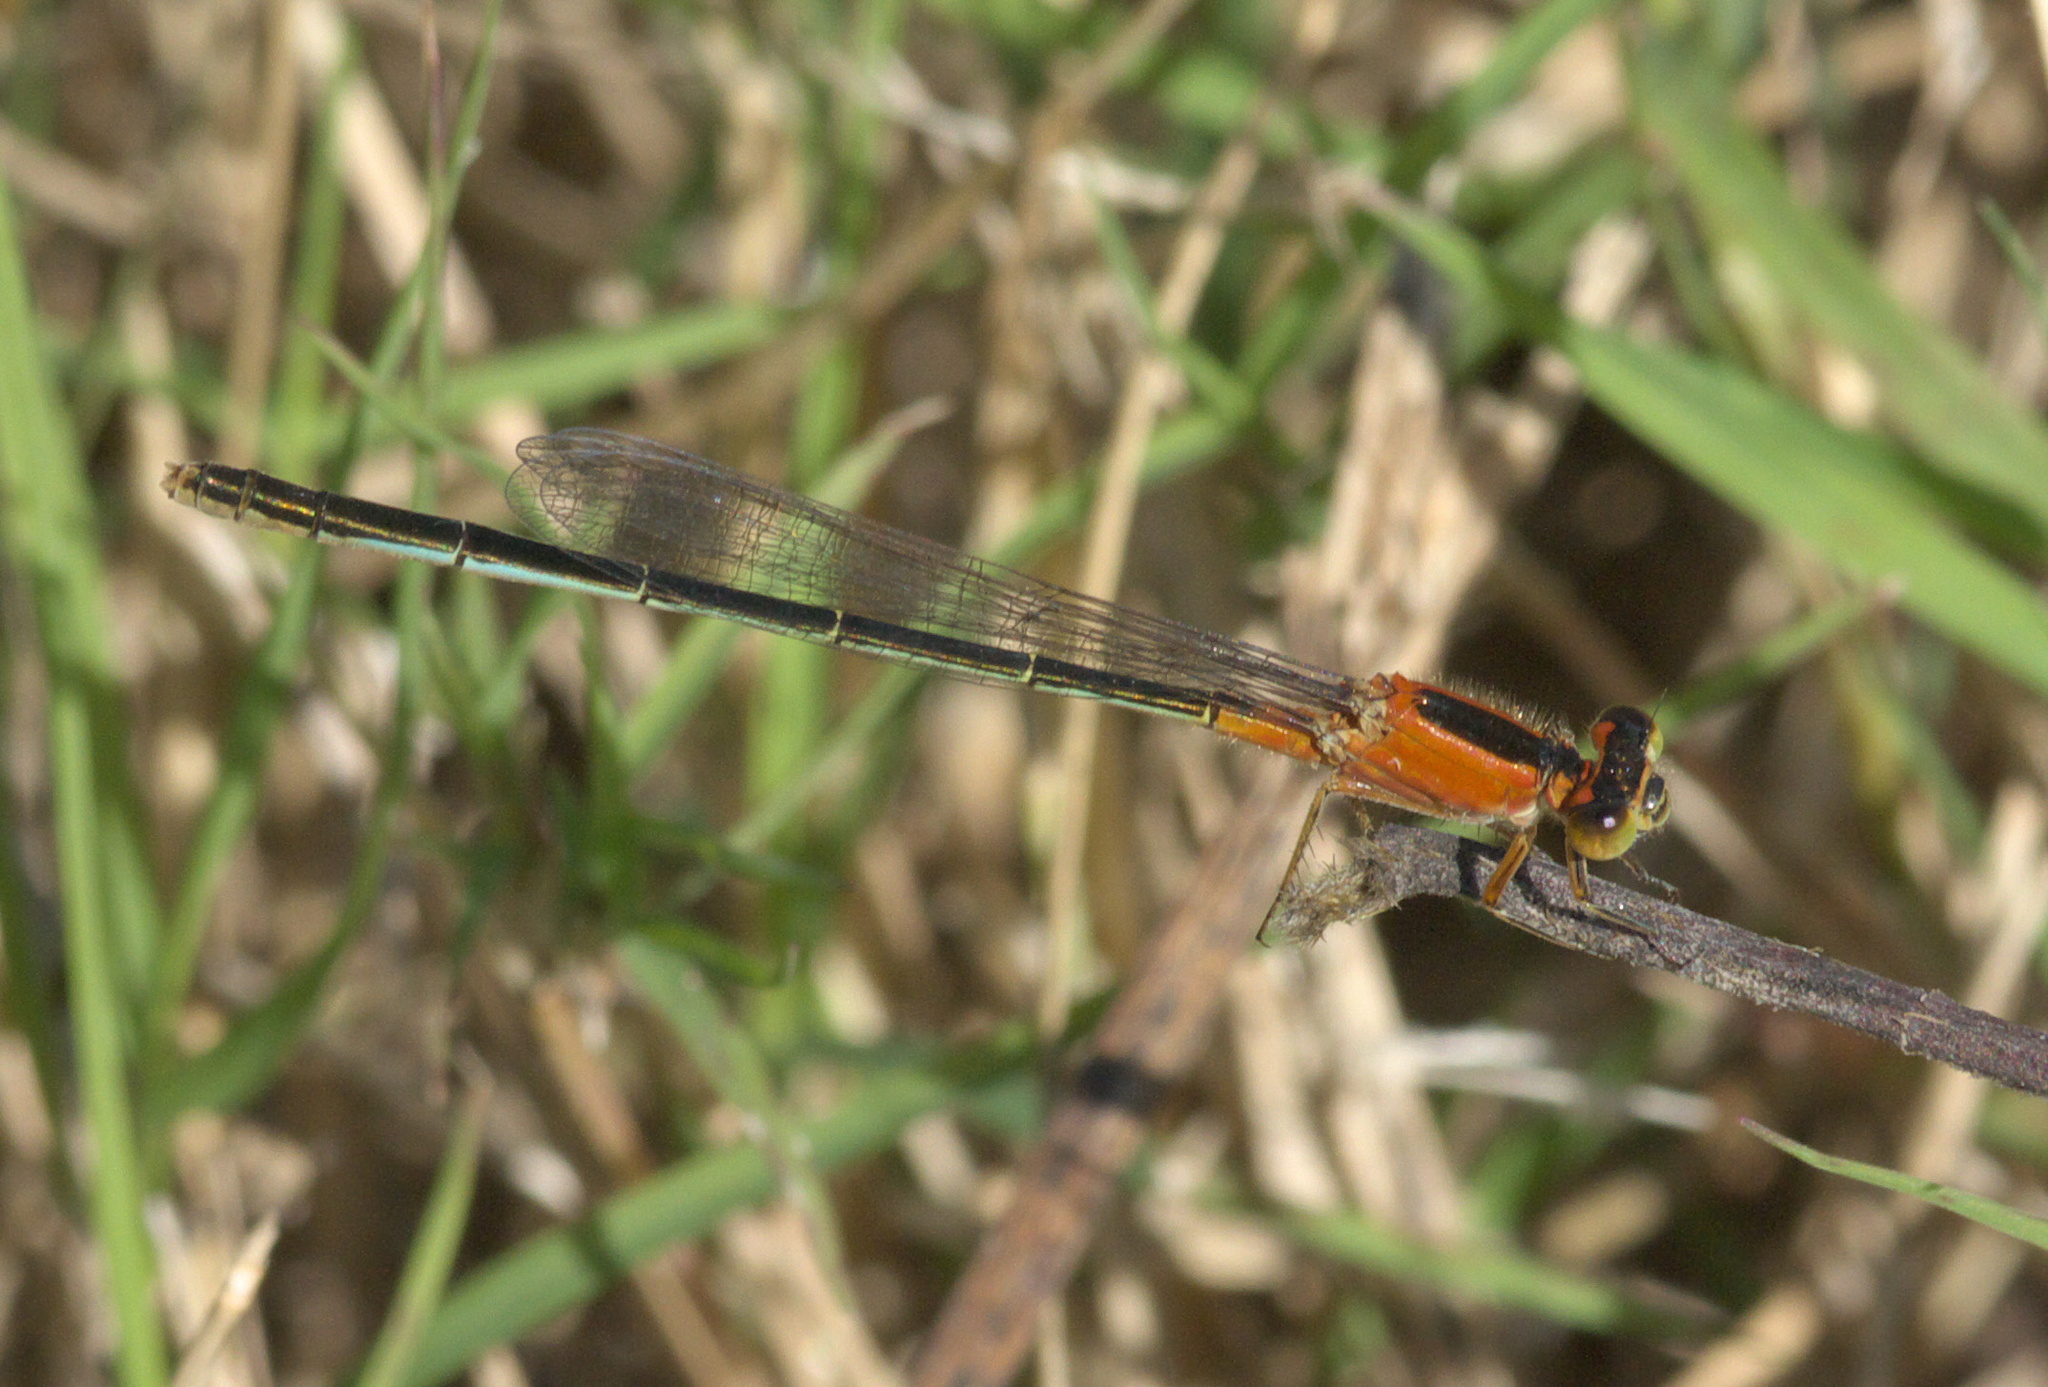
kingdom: Animalia
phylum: Arthropoda
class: Insecta
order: Odonata
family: Coenagrionidae
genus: Ischnura
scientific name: Ischnura ramburii
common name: Rambur's forktail
